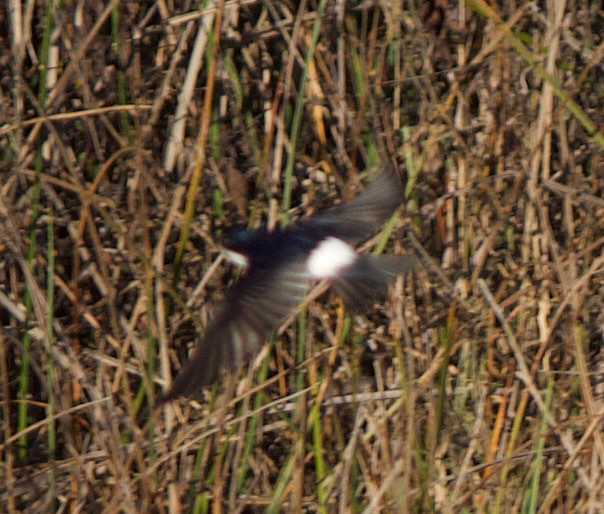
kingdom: Animalia
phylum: Chordata
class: Aves
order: Passeriformes
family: Hirundinidae
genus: Tachycineta
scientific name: Tachycineta leucopyga
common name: Chilean swallow
